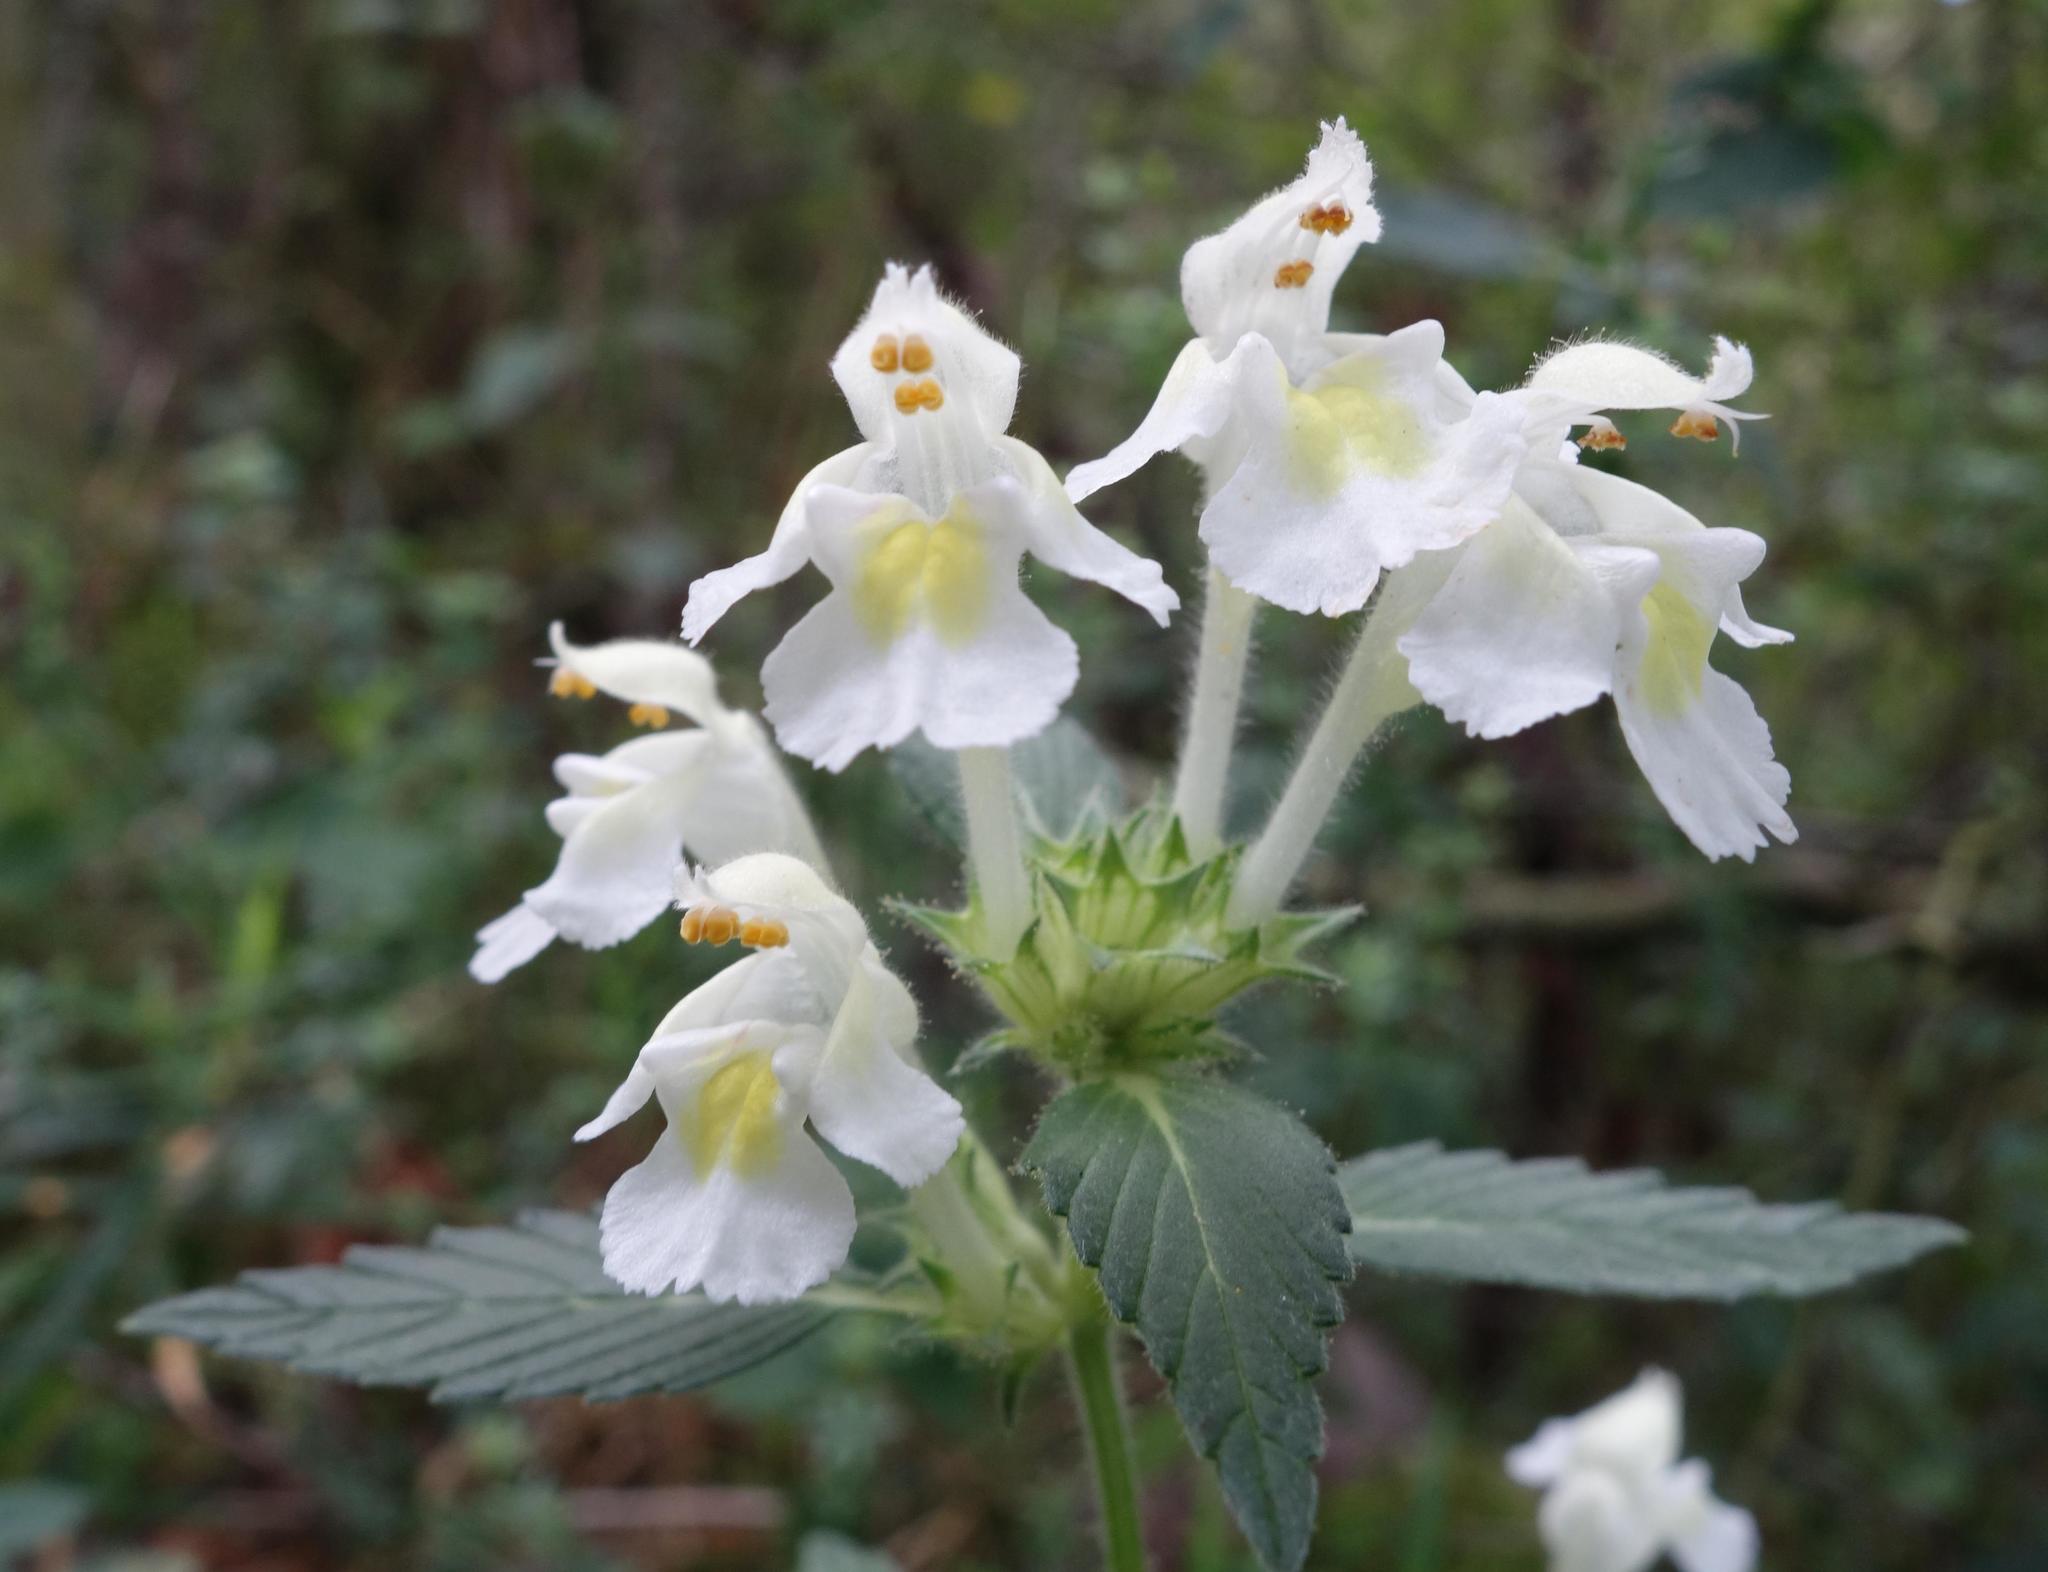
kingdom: Plantae
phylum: Tracheophyta
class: Magnoliopsida
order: Lamiales
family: Lamiaceae
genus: Galeopsis
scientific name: Galeopsis segetum
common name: Downy hemp-nettle
